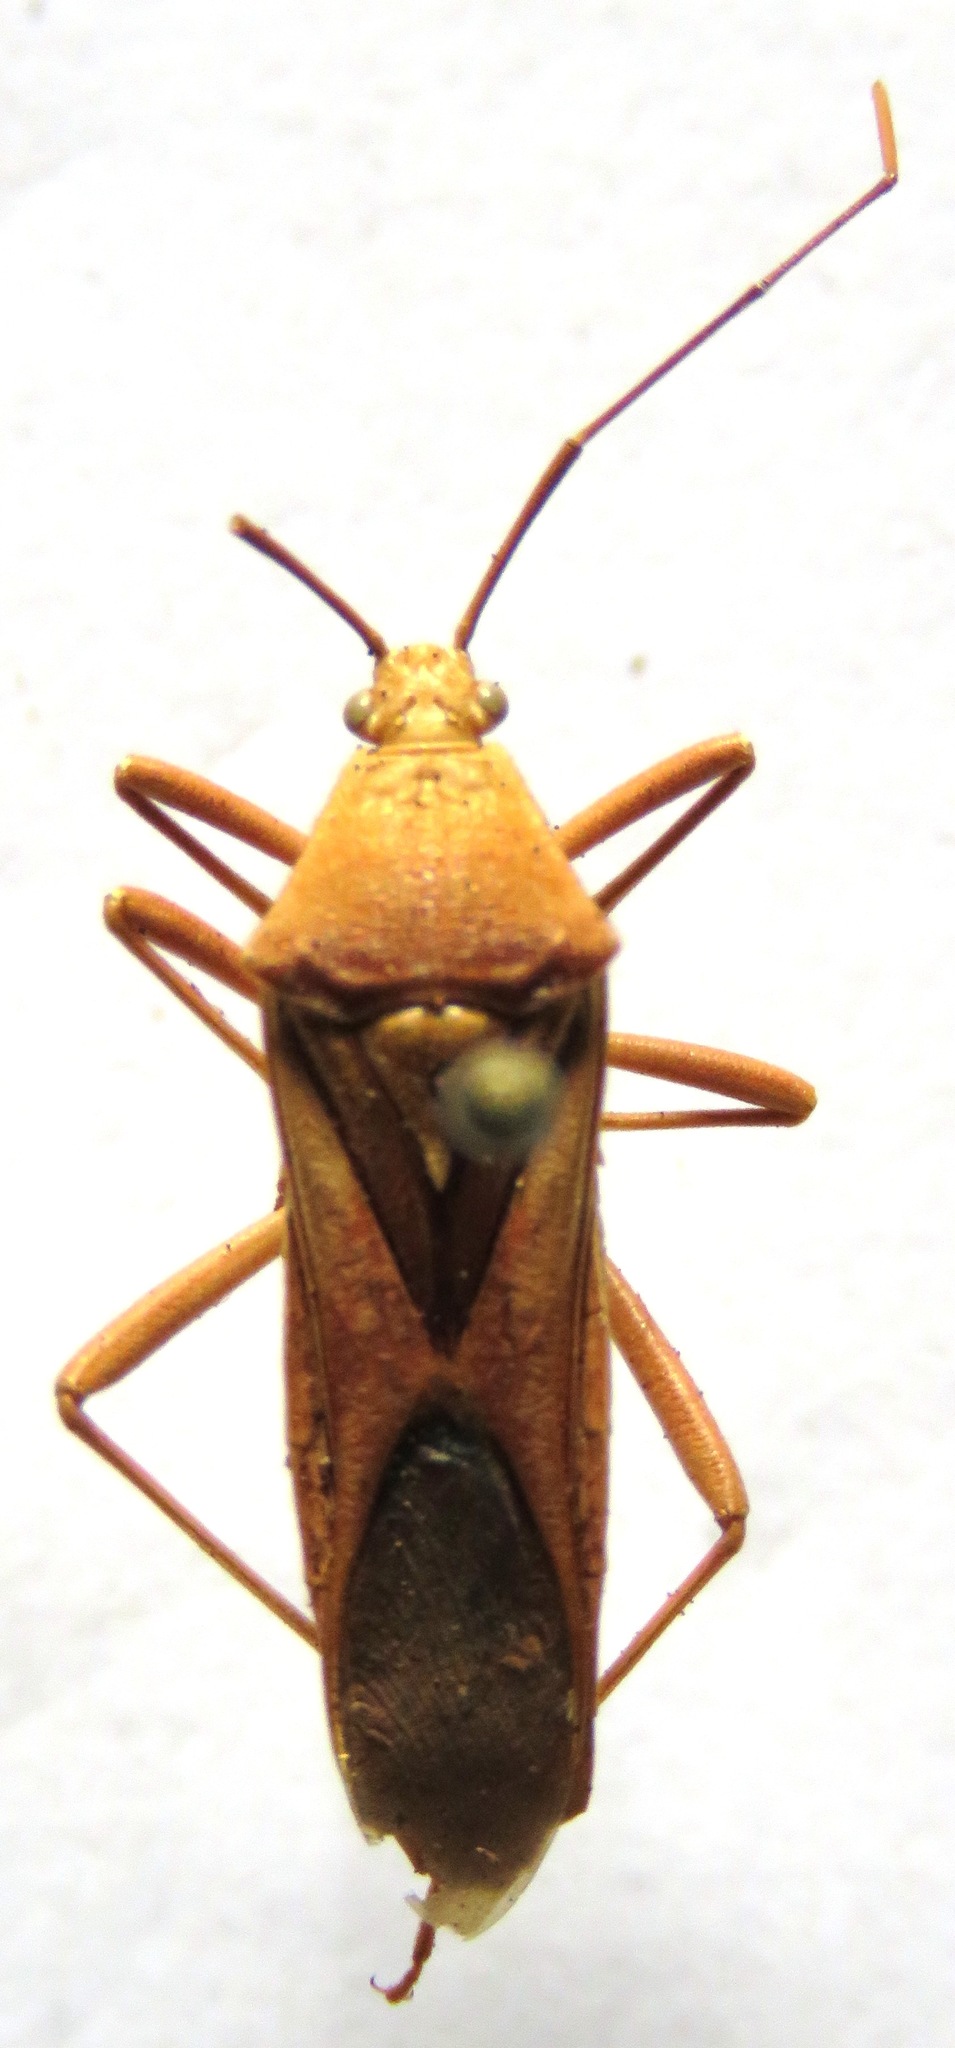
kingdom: Animalia
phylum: Arthropoda
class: Insecta
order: Hemiptera
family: Coreidae
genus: Savius
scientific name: Savius jurgiosus
